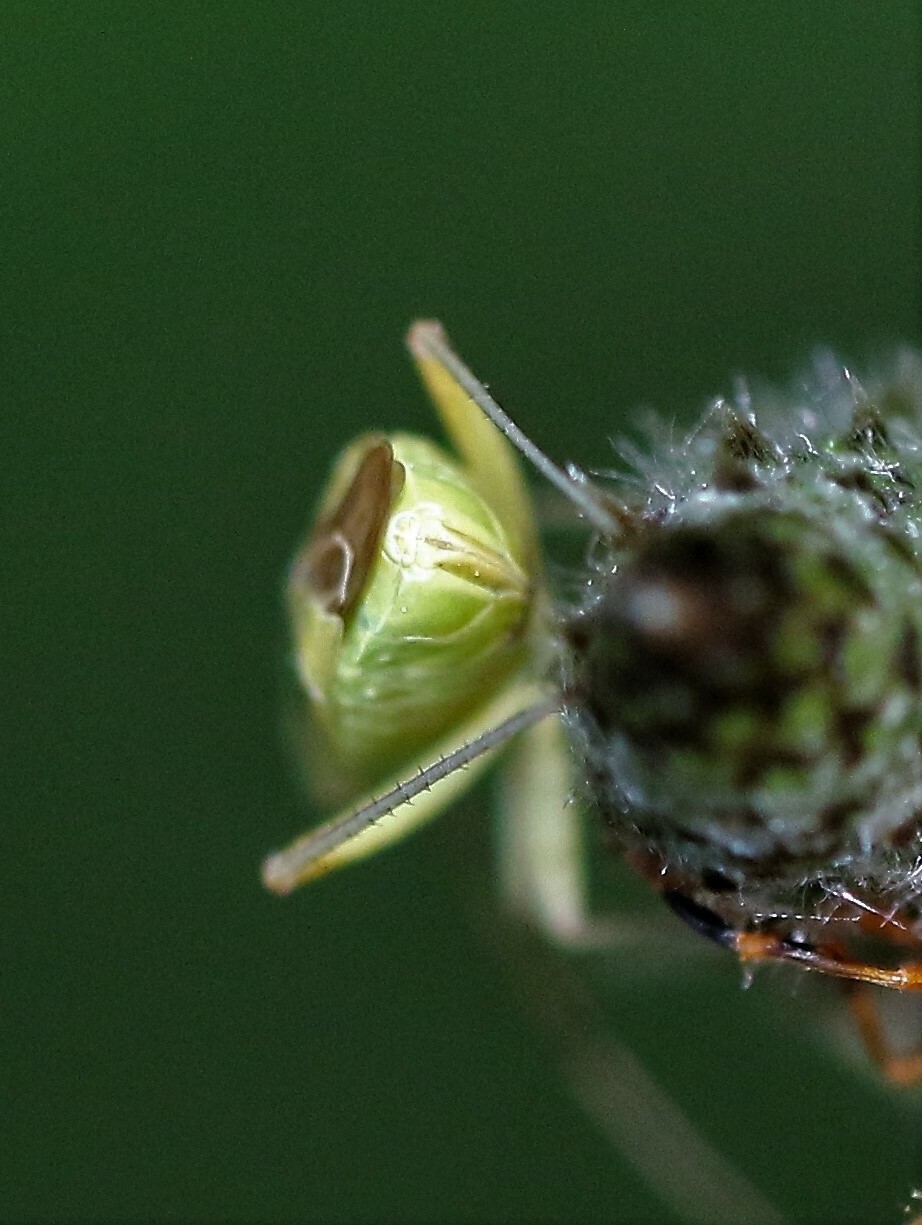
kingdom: Animalia
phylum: Arthropoda
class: Insecta
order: Hemiptera
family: Miridae
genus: Closterotomus
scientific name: Closterotomus norvegicus
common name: Plant bug
